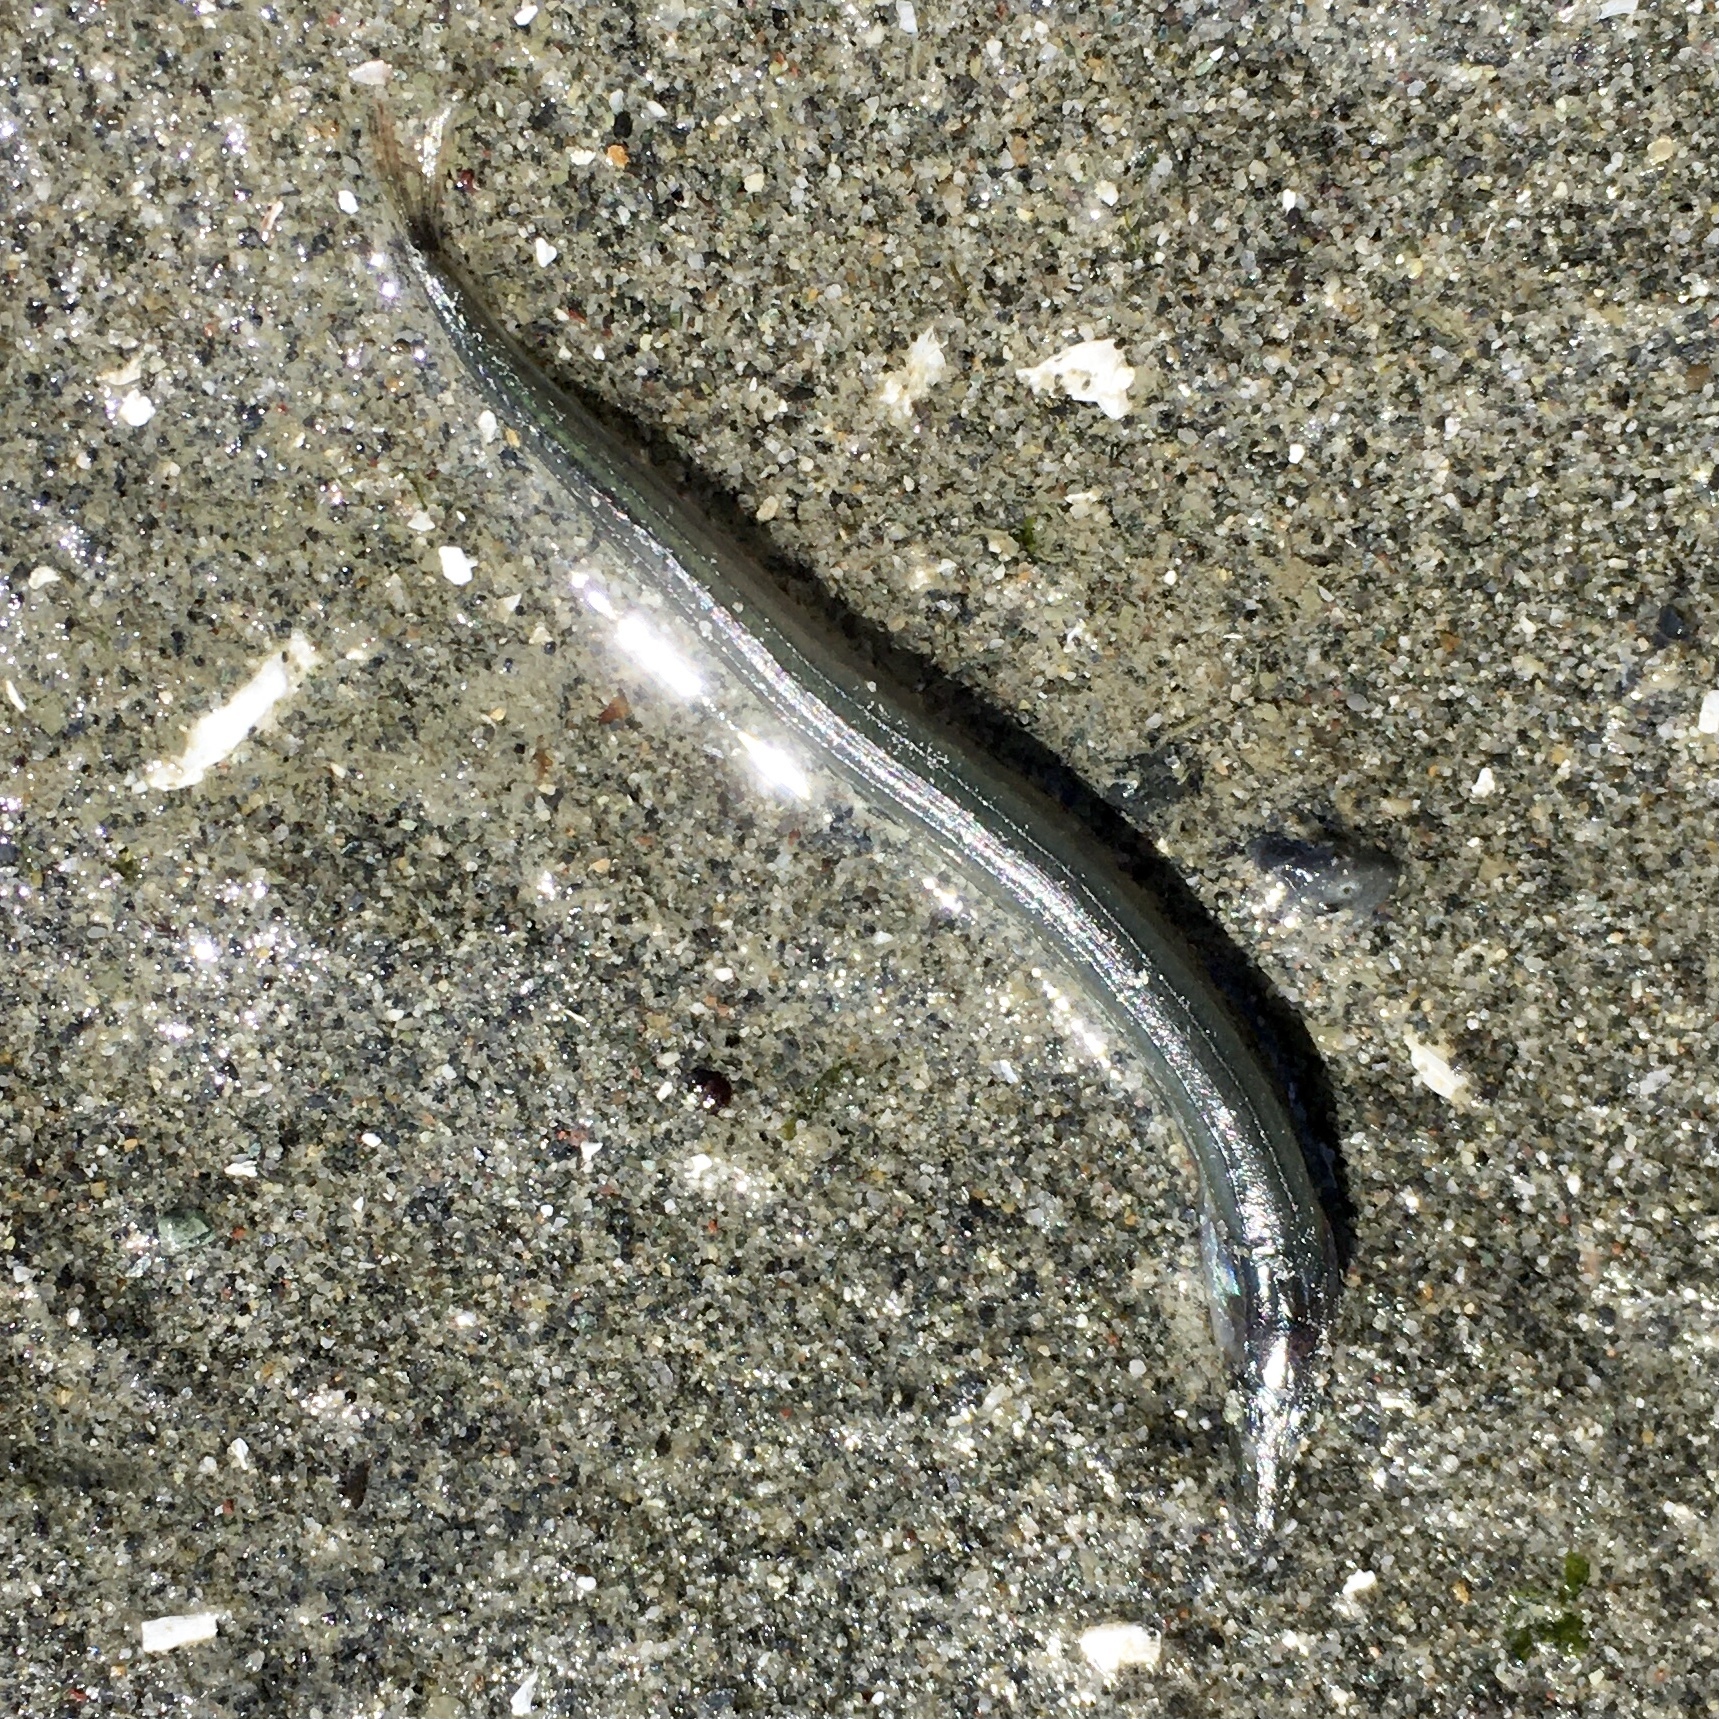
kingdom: Animalia
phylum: Chordata
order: Perciformes
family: Ammodytidae
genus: Ammodytes
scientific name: Ammodytes personatus
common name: Japanese sand lance
